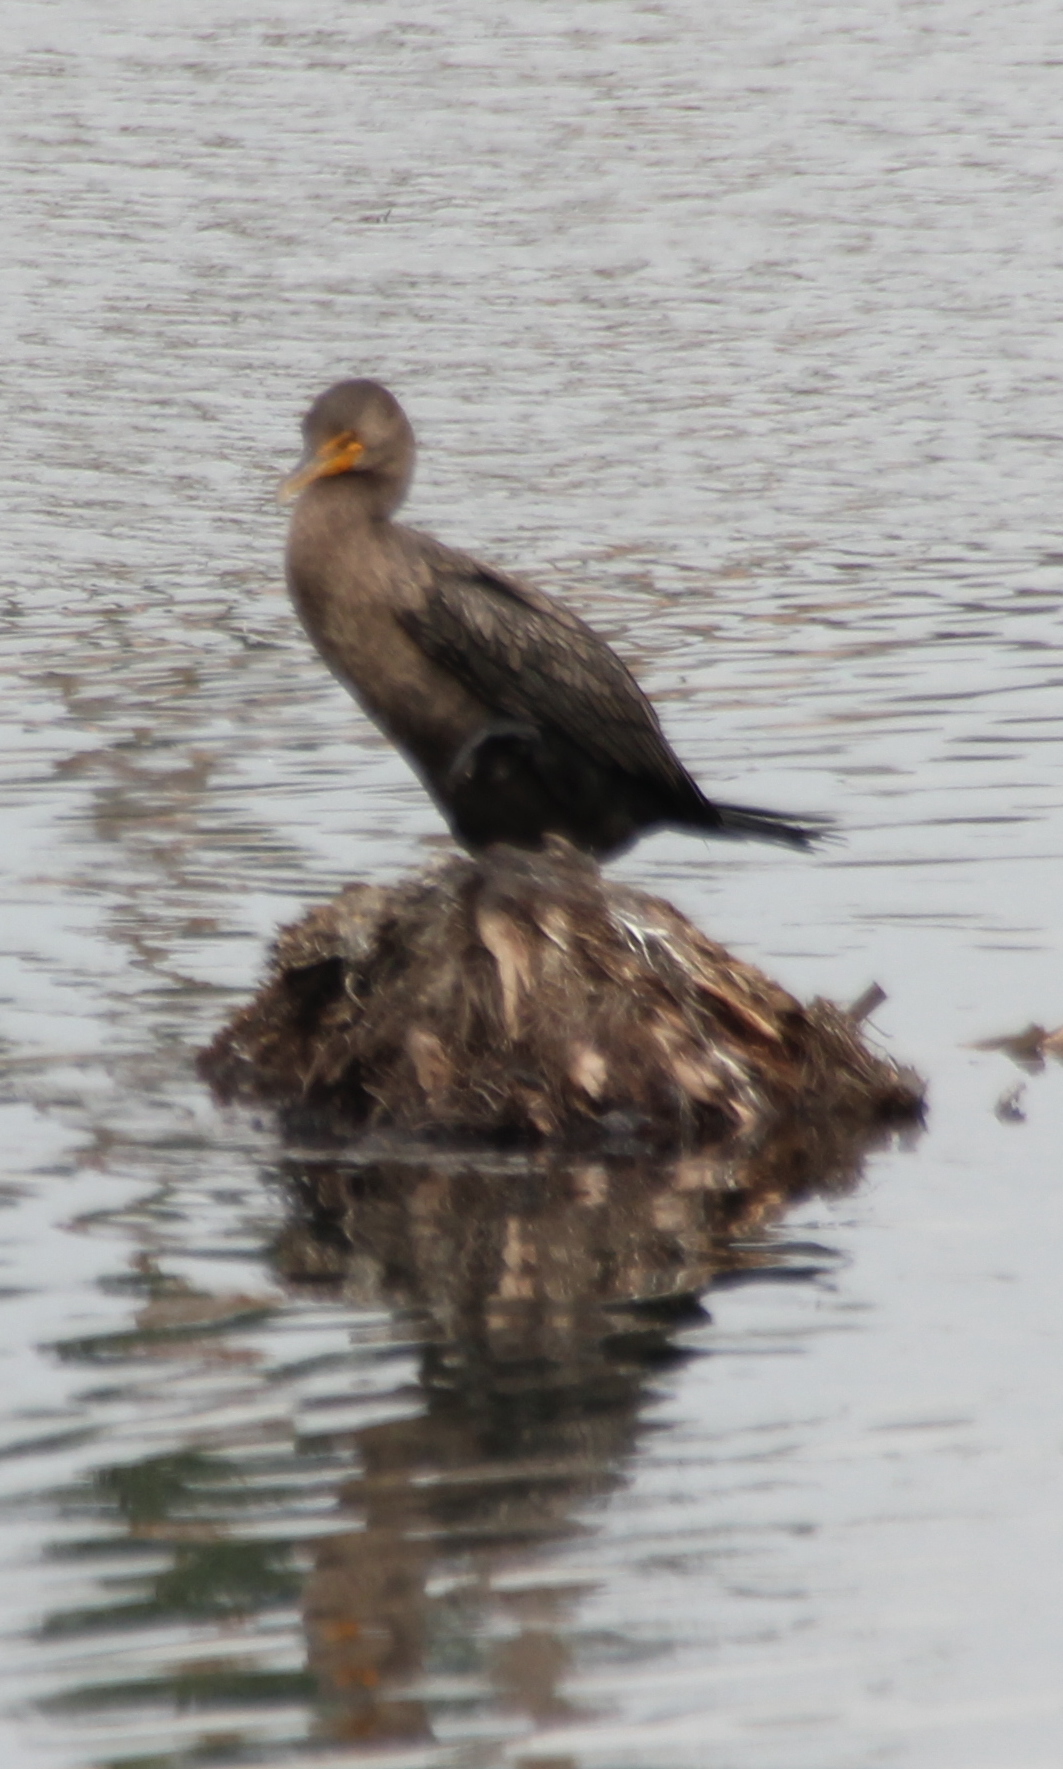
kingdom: Animalia
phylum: Chordata
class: Aves
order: Suliformes
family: Phalacrocoracidae
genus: Phalacrocorax
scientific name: Phalacrocorax auritus
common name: Double-crested cormorant
